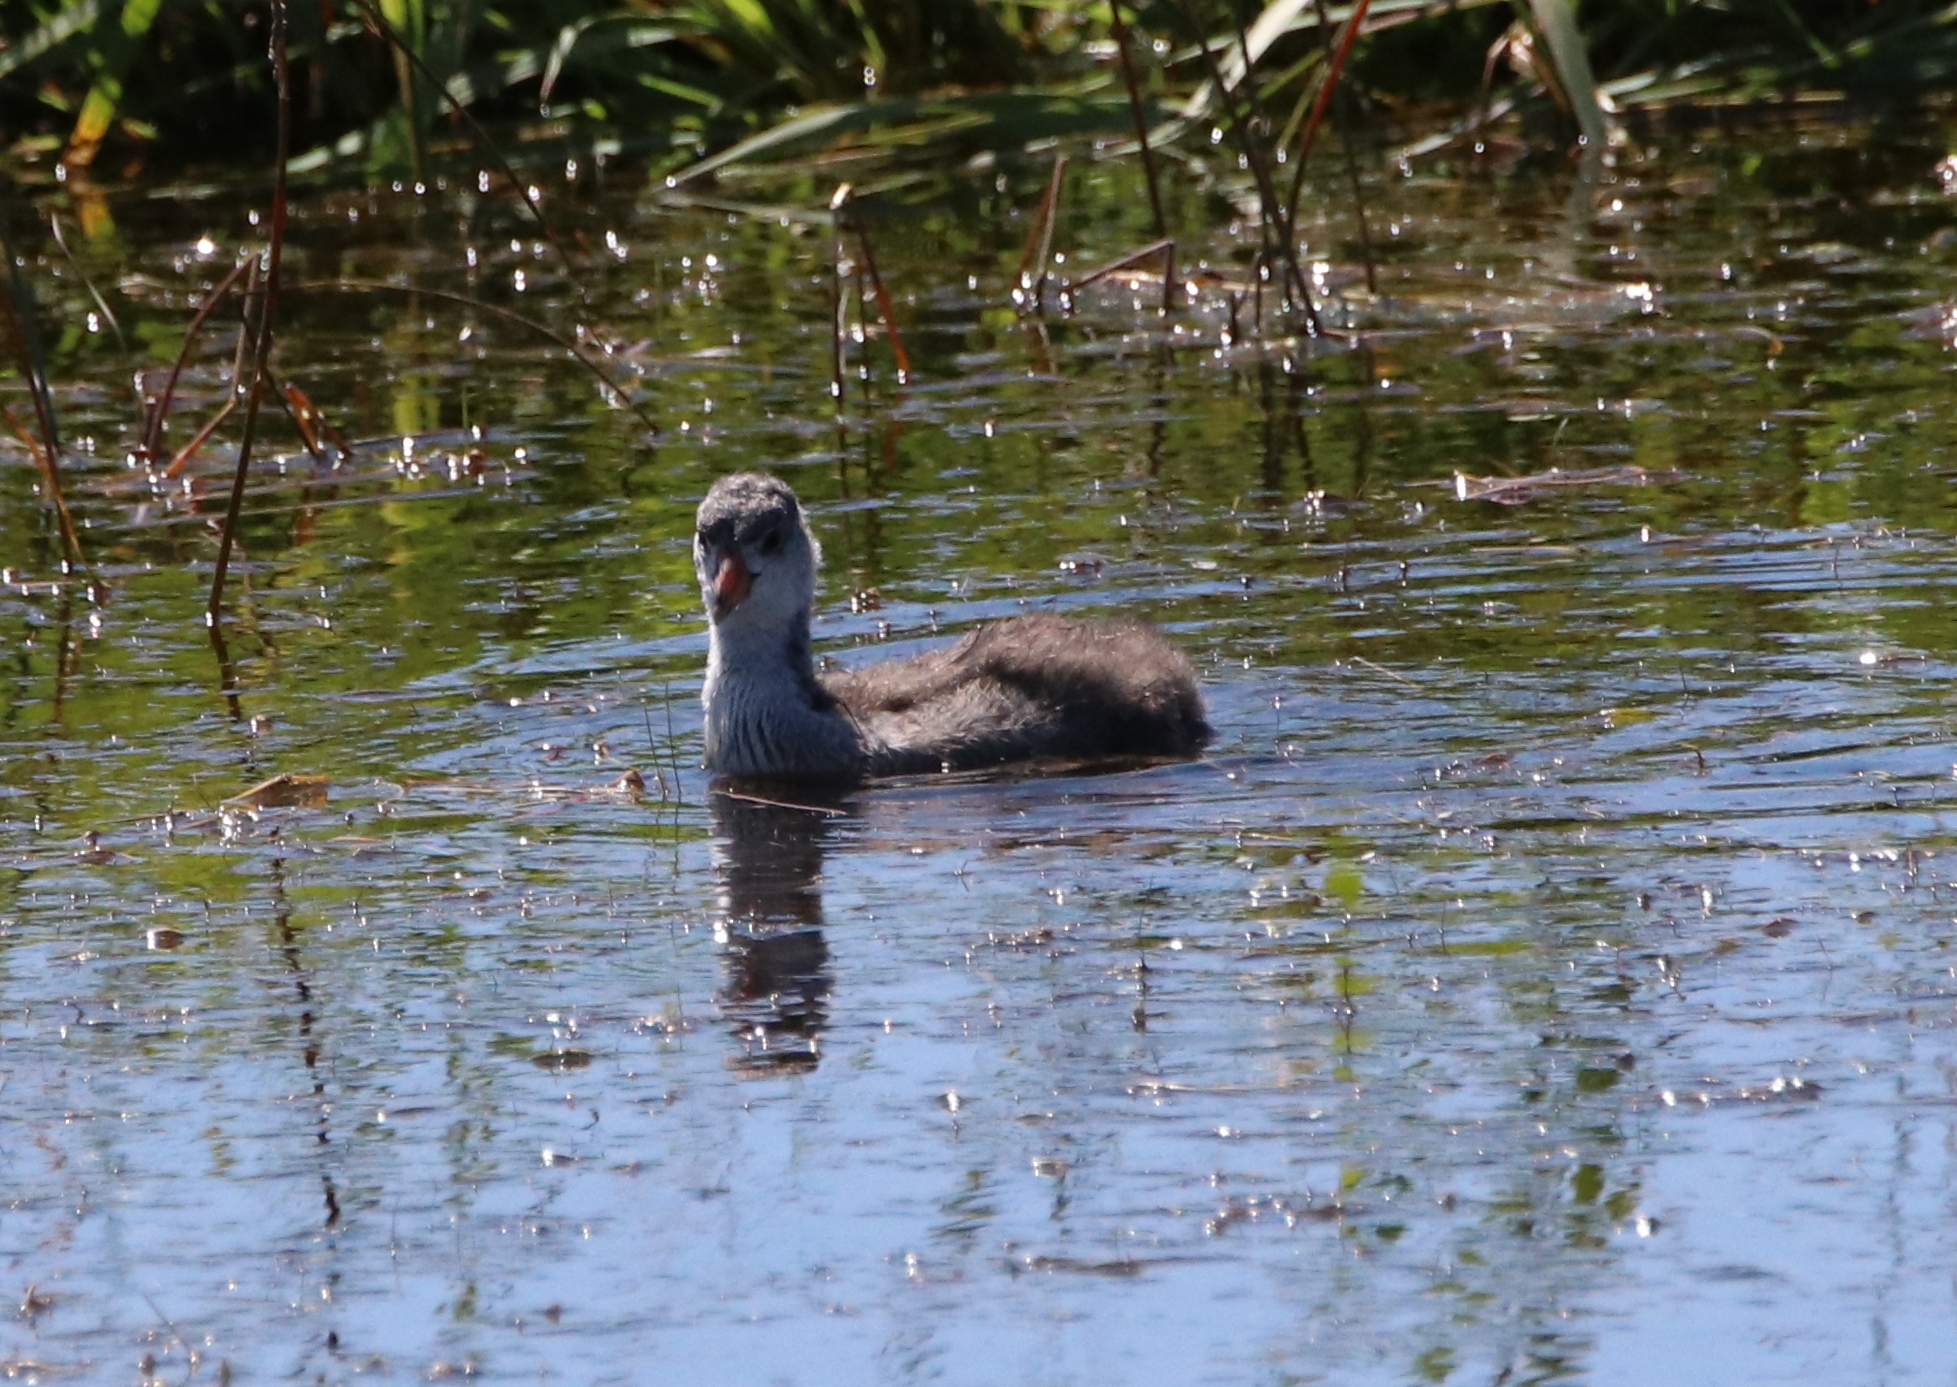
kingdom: Animalia
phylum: Chordata
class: Aves
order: Podicipediformes
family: Podicipedidae
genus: Podilymbus
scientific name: Podilymbus podiceps
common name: Pied-billed grebe
